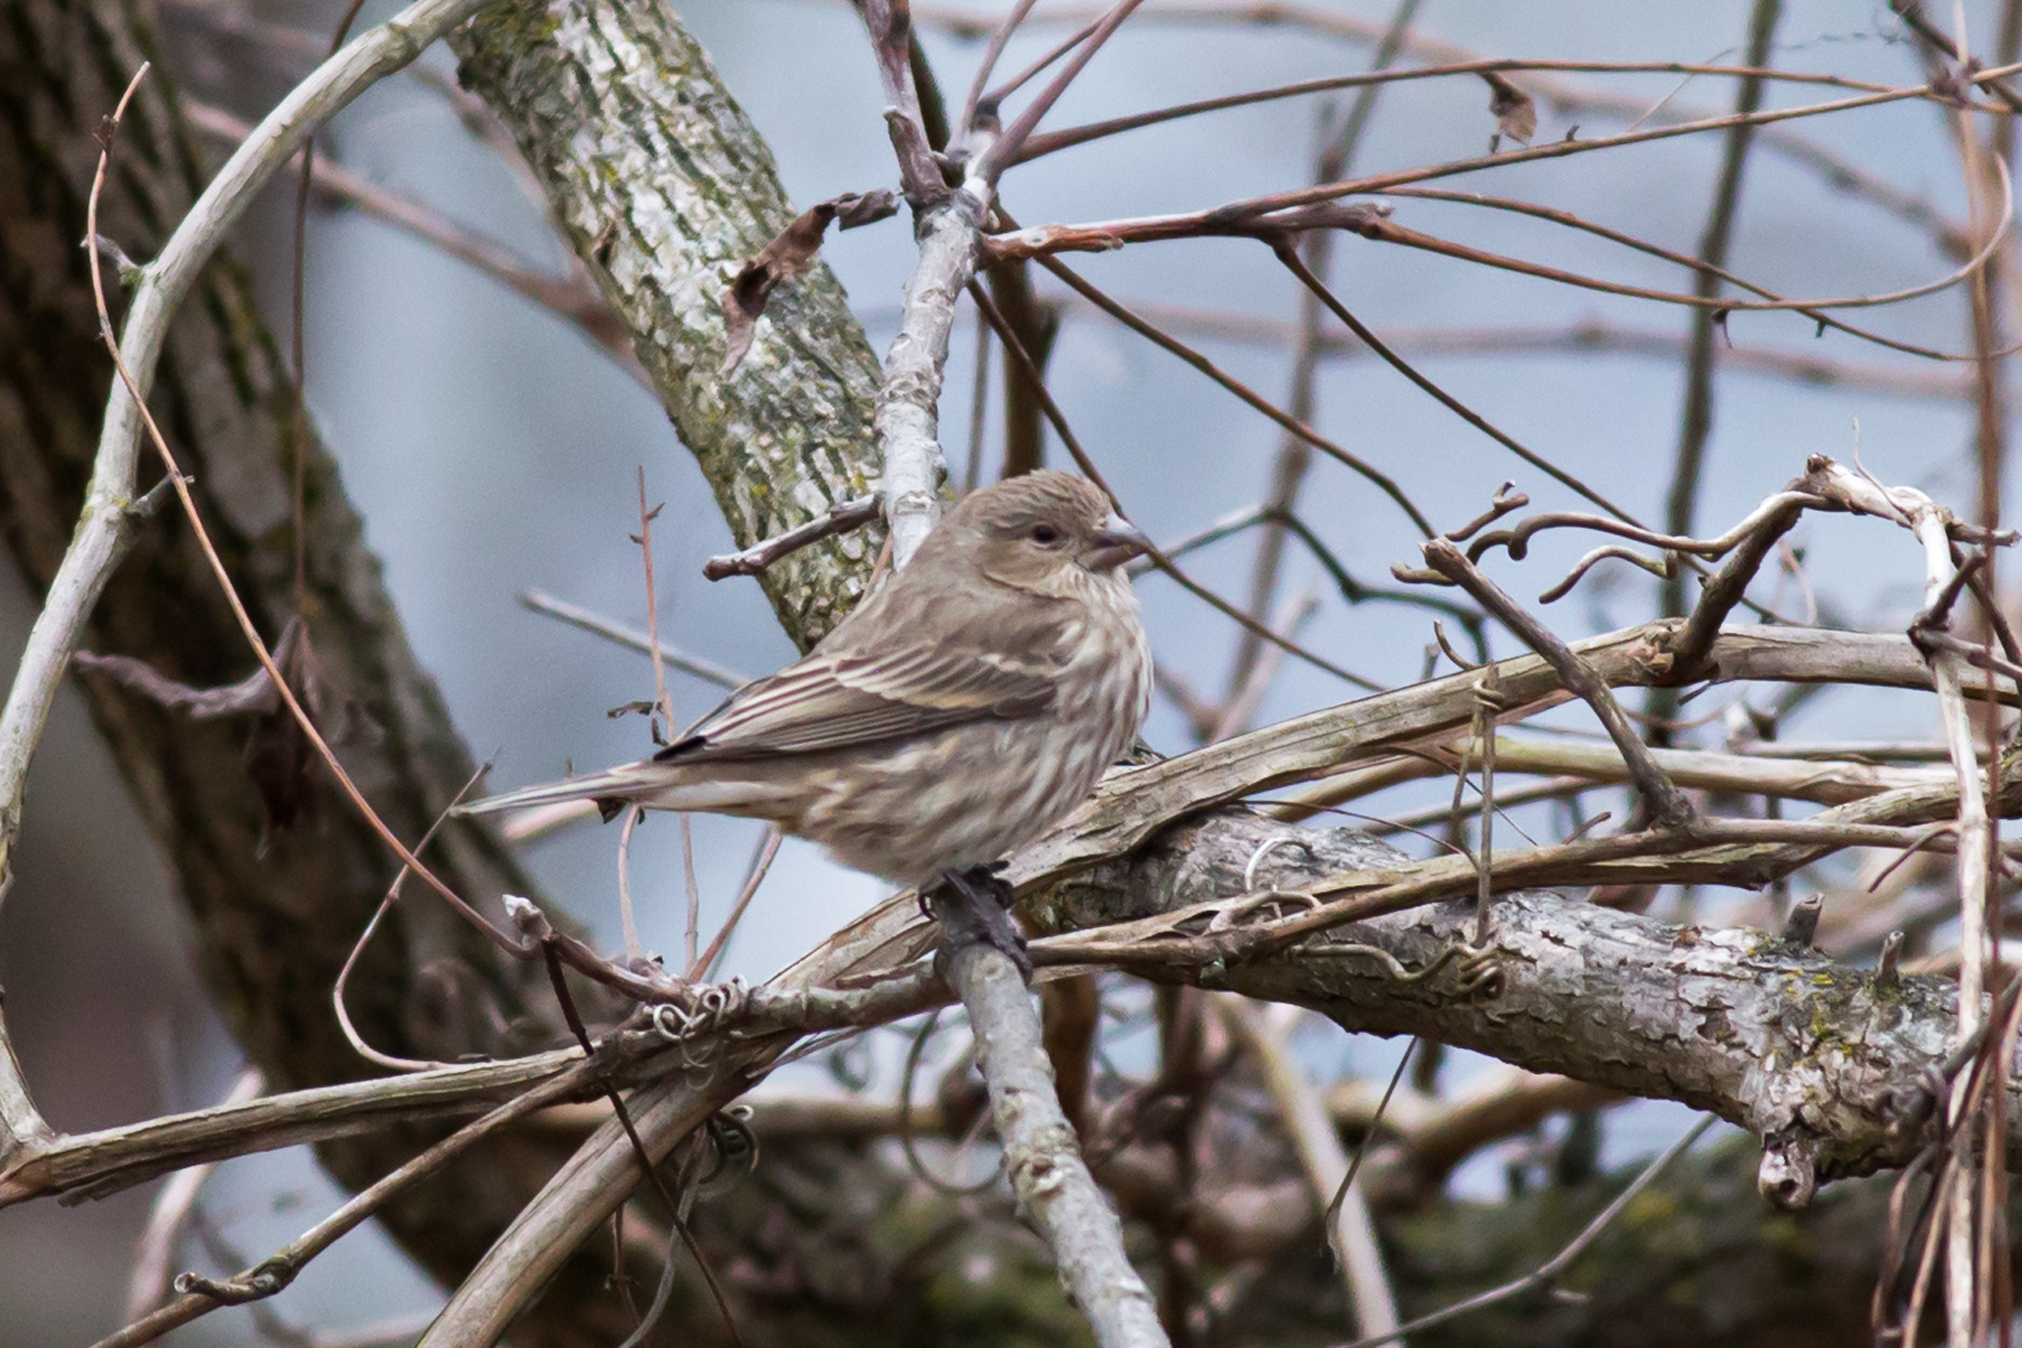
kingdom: Animalia
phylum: Chordata
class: Aves
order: Passeriformes
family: Fringillidae
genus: Haemorhous
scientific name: Haemorhous mexicanus
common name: House finch
